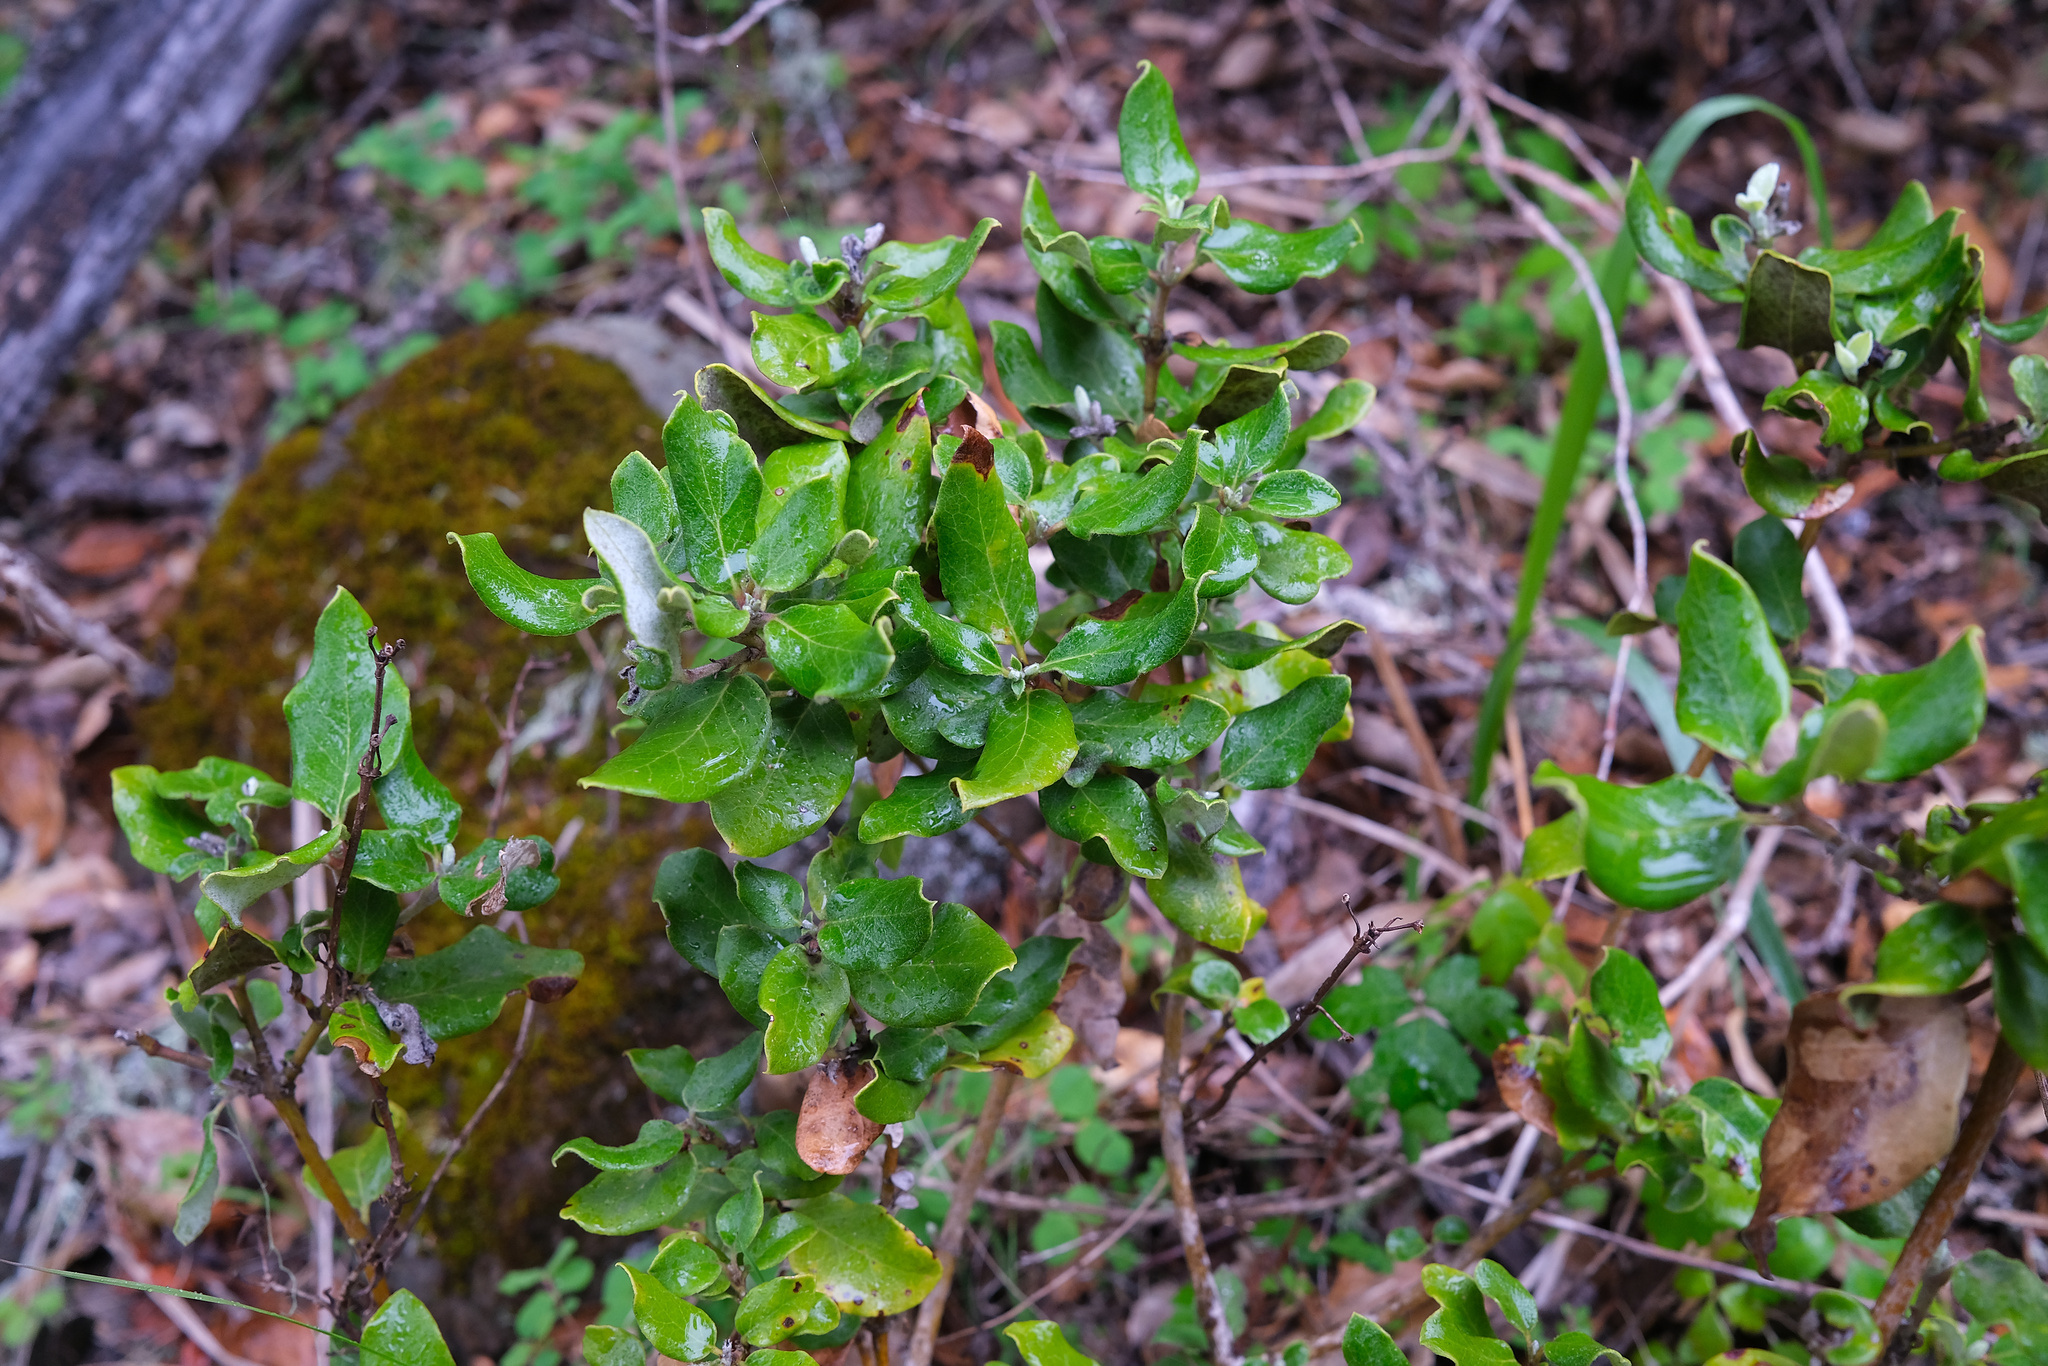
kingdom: Plantae
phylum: Tracheophyta
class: Magnoliopsida
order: Garryales
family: Garryaceae
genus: Garrya
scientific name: Garrya elliptica
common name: Silk-tassel
